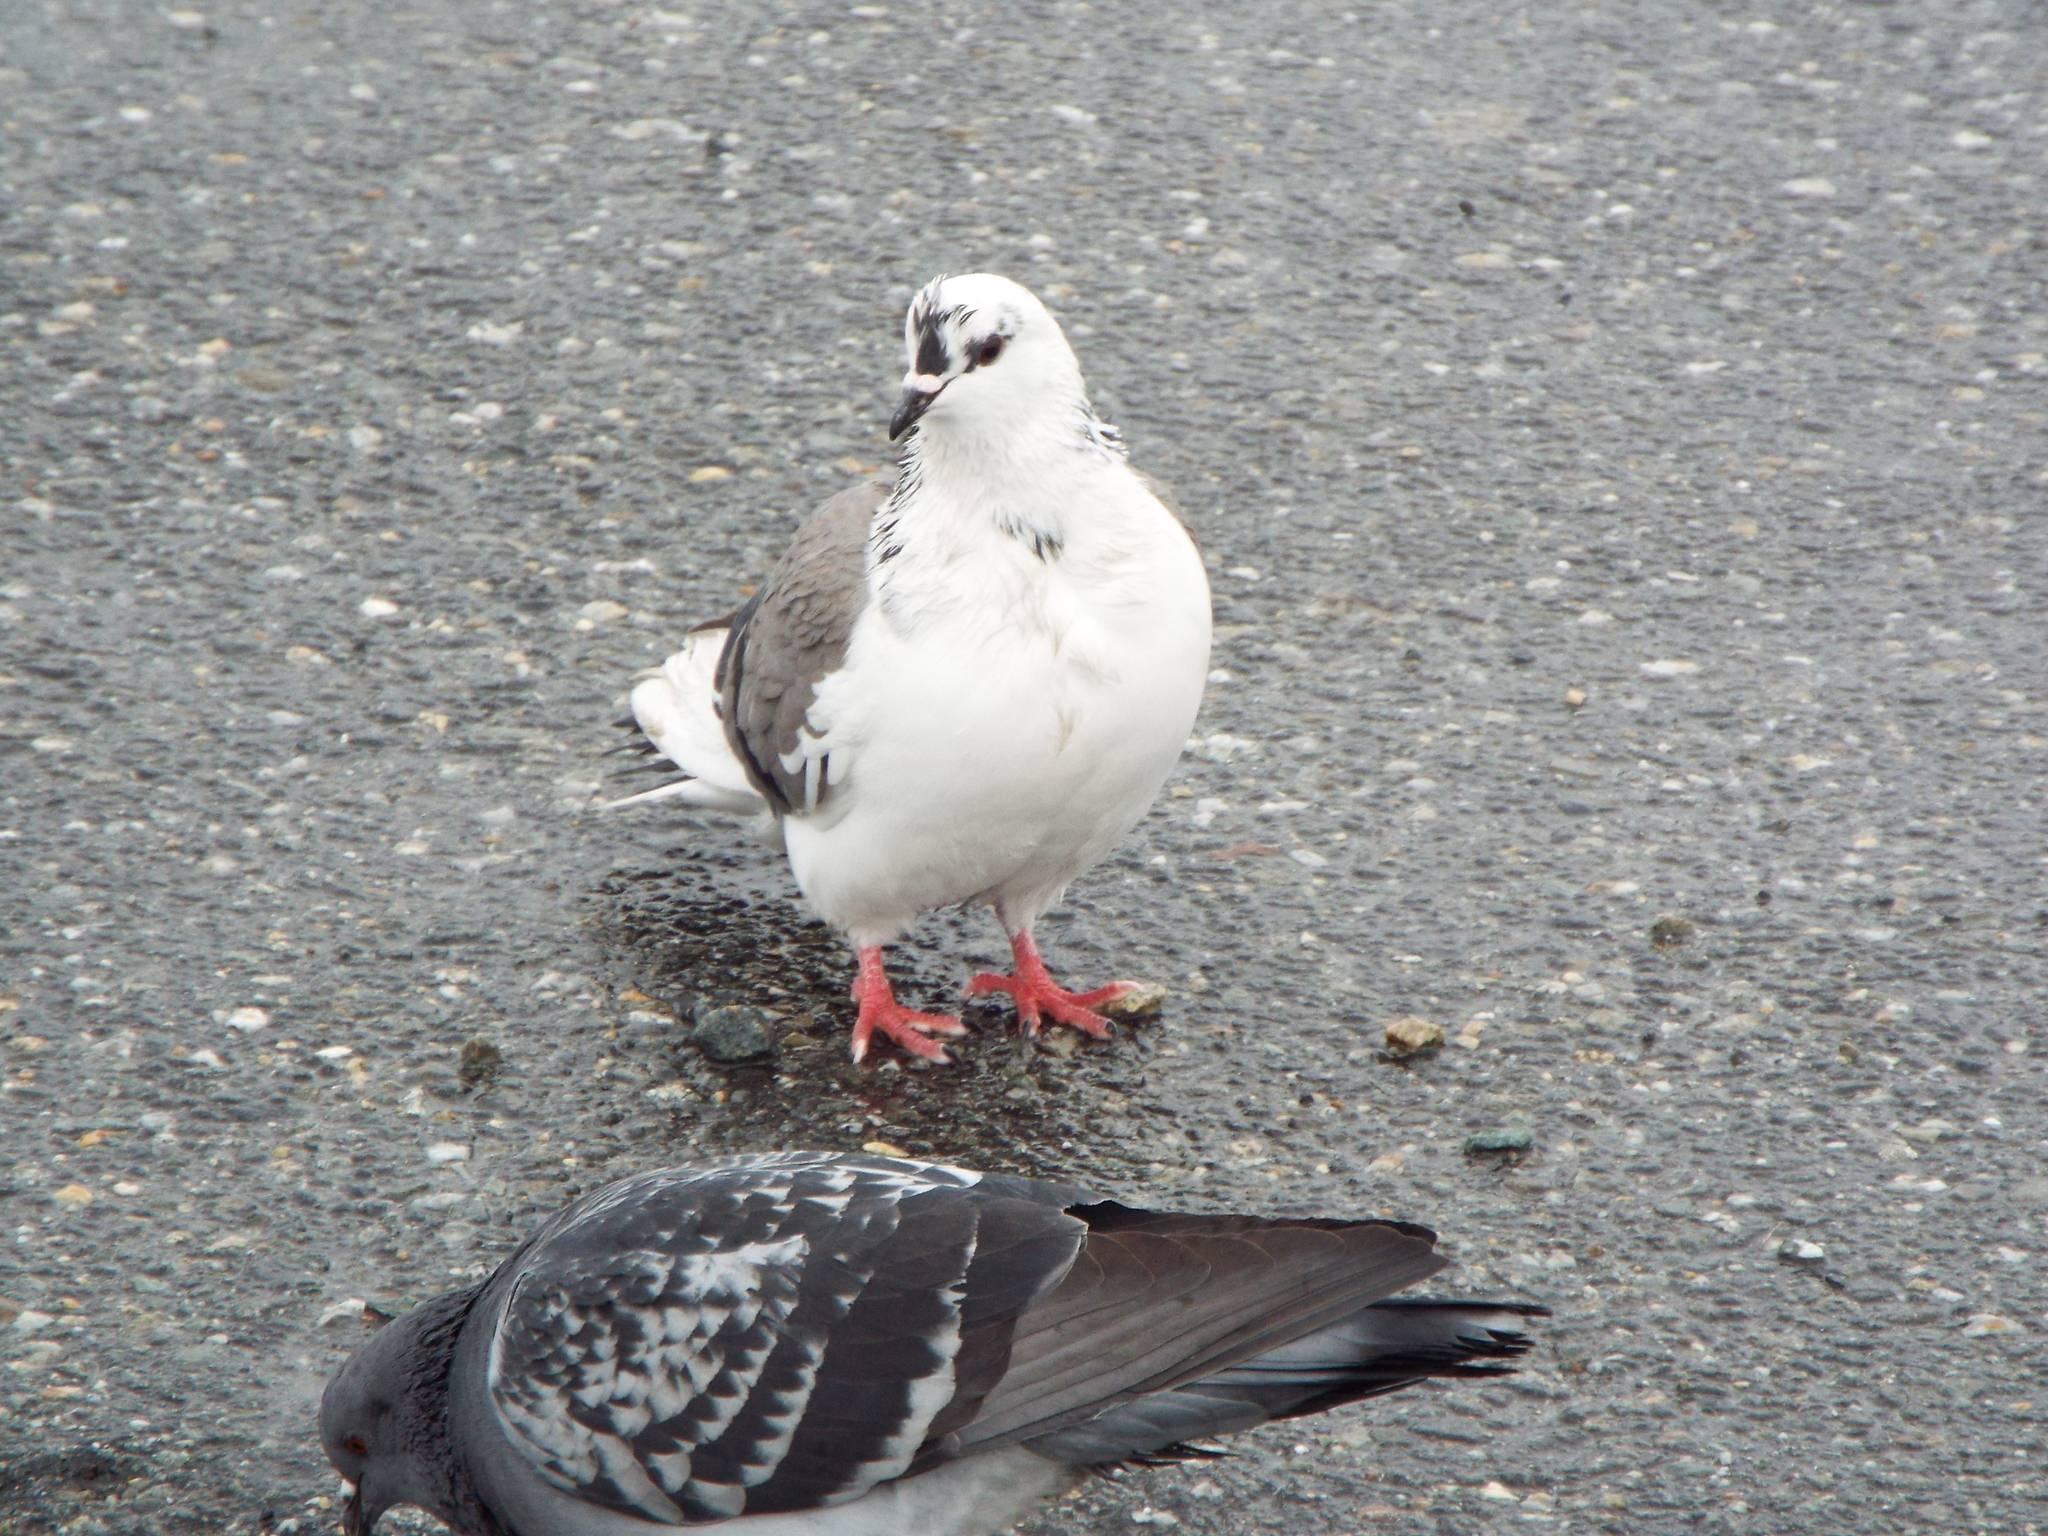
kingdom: Animalia
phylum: Chordata
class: Aves
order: Columbiformes
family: Columbidae
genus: Columba
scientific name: Columba livia
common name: Rock pigeon
